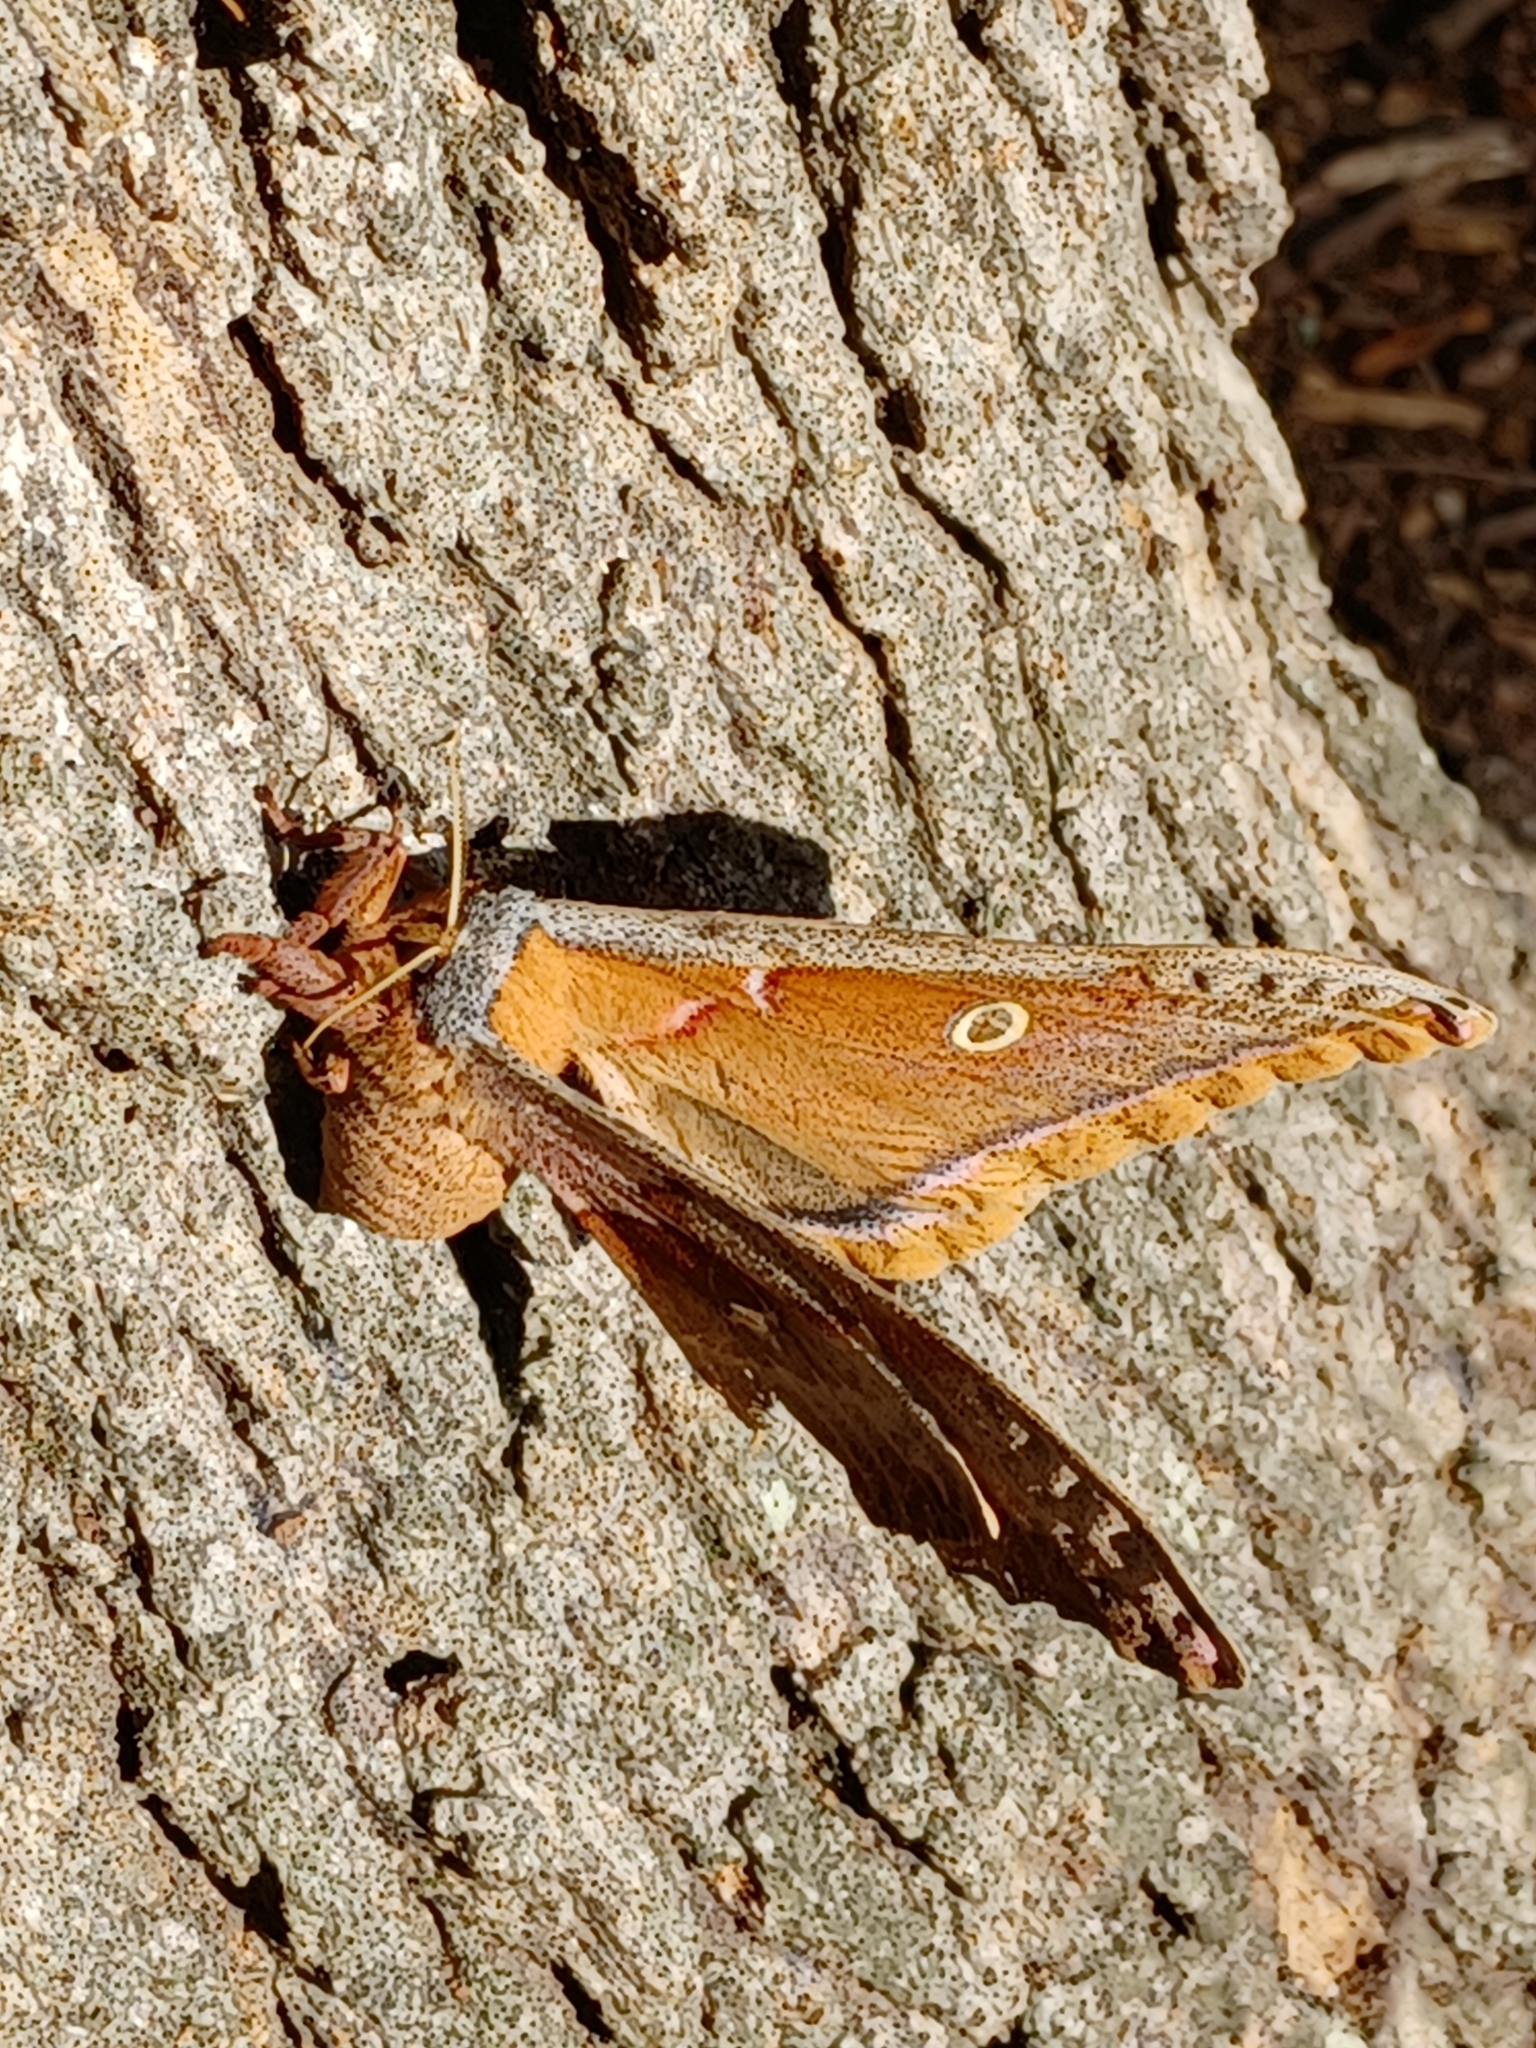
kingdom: Animalia
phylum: Arthropoda
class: Insecta
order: Lepidoptera
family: Saturniidae
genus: Antheraea
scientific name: Antheraea polyphemus
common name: Polyphemus moth
